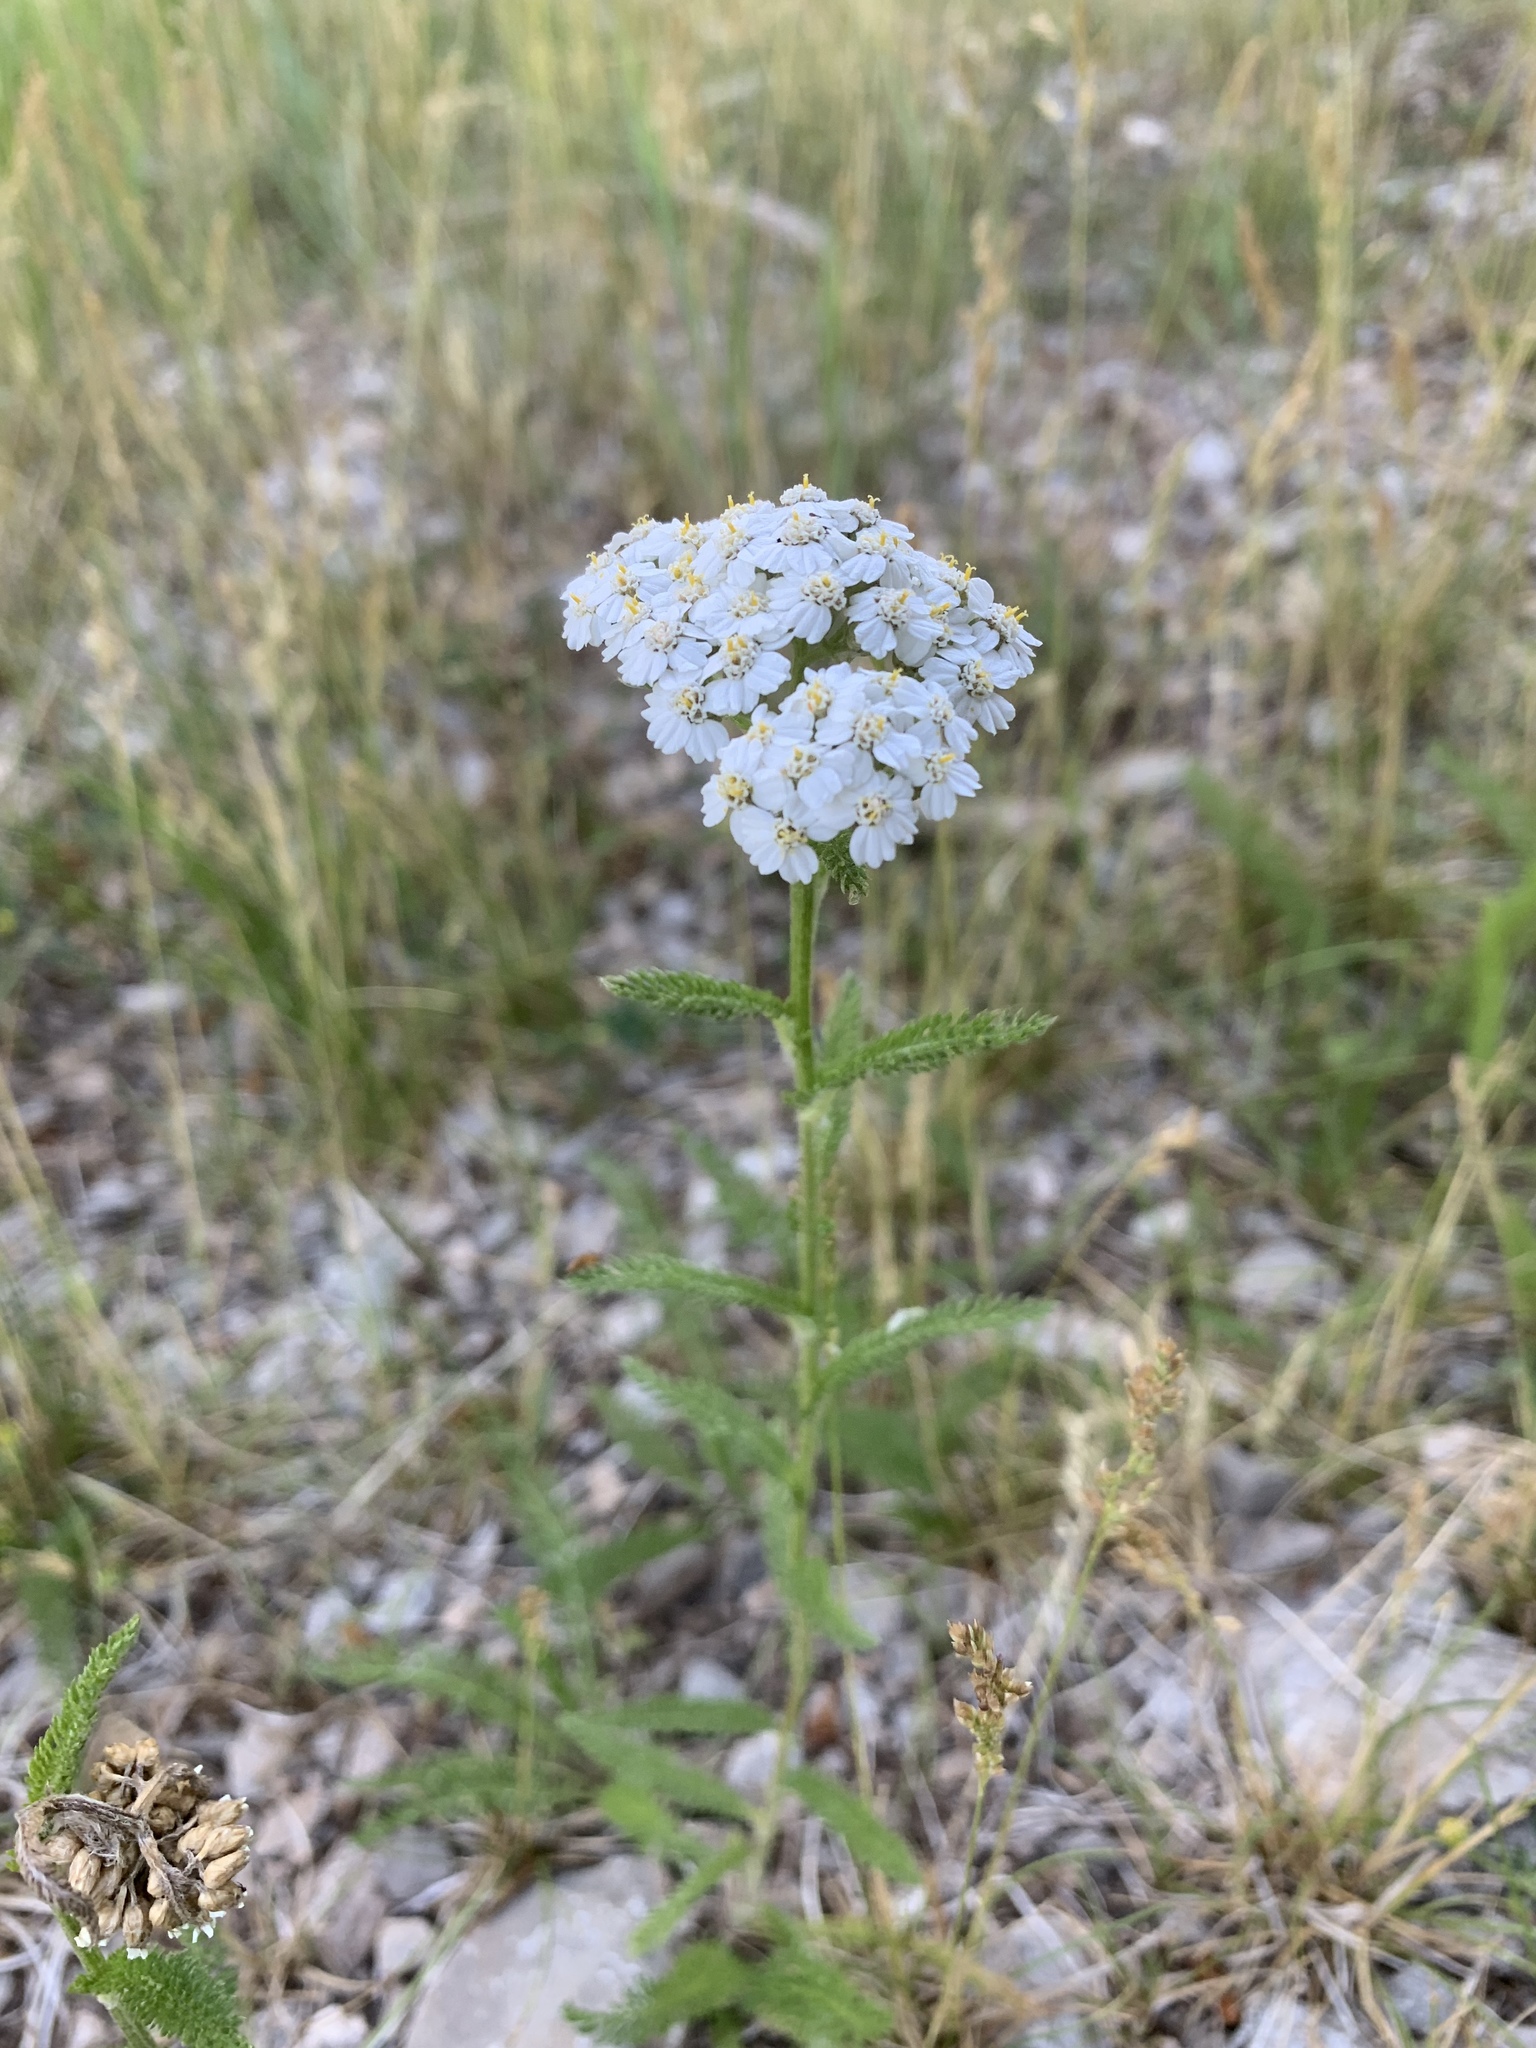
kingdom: Plantae
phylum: Tracheophyta
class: Magnoliopsida
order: Asterales
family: Asteraceae
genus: Achillea
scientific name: Achillea millefolium
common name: Yarrow
